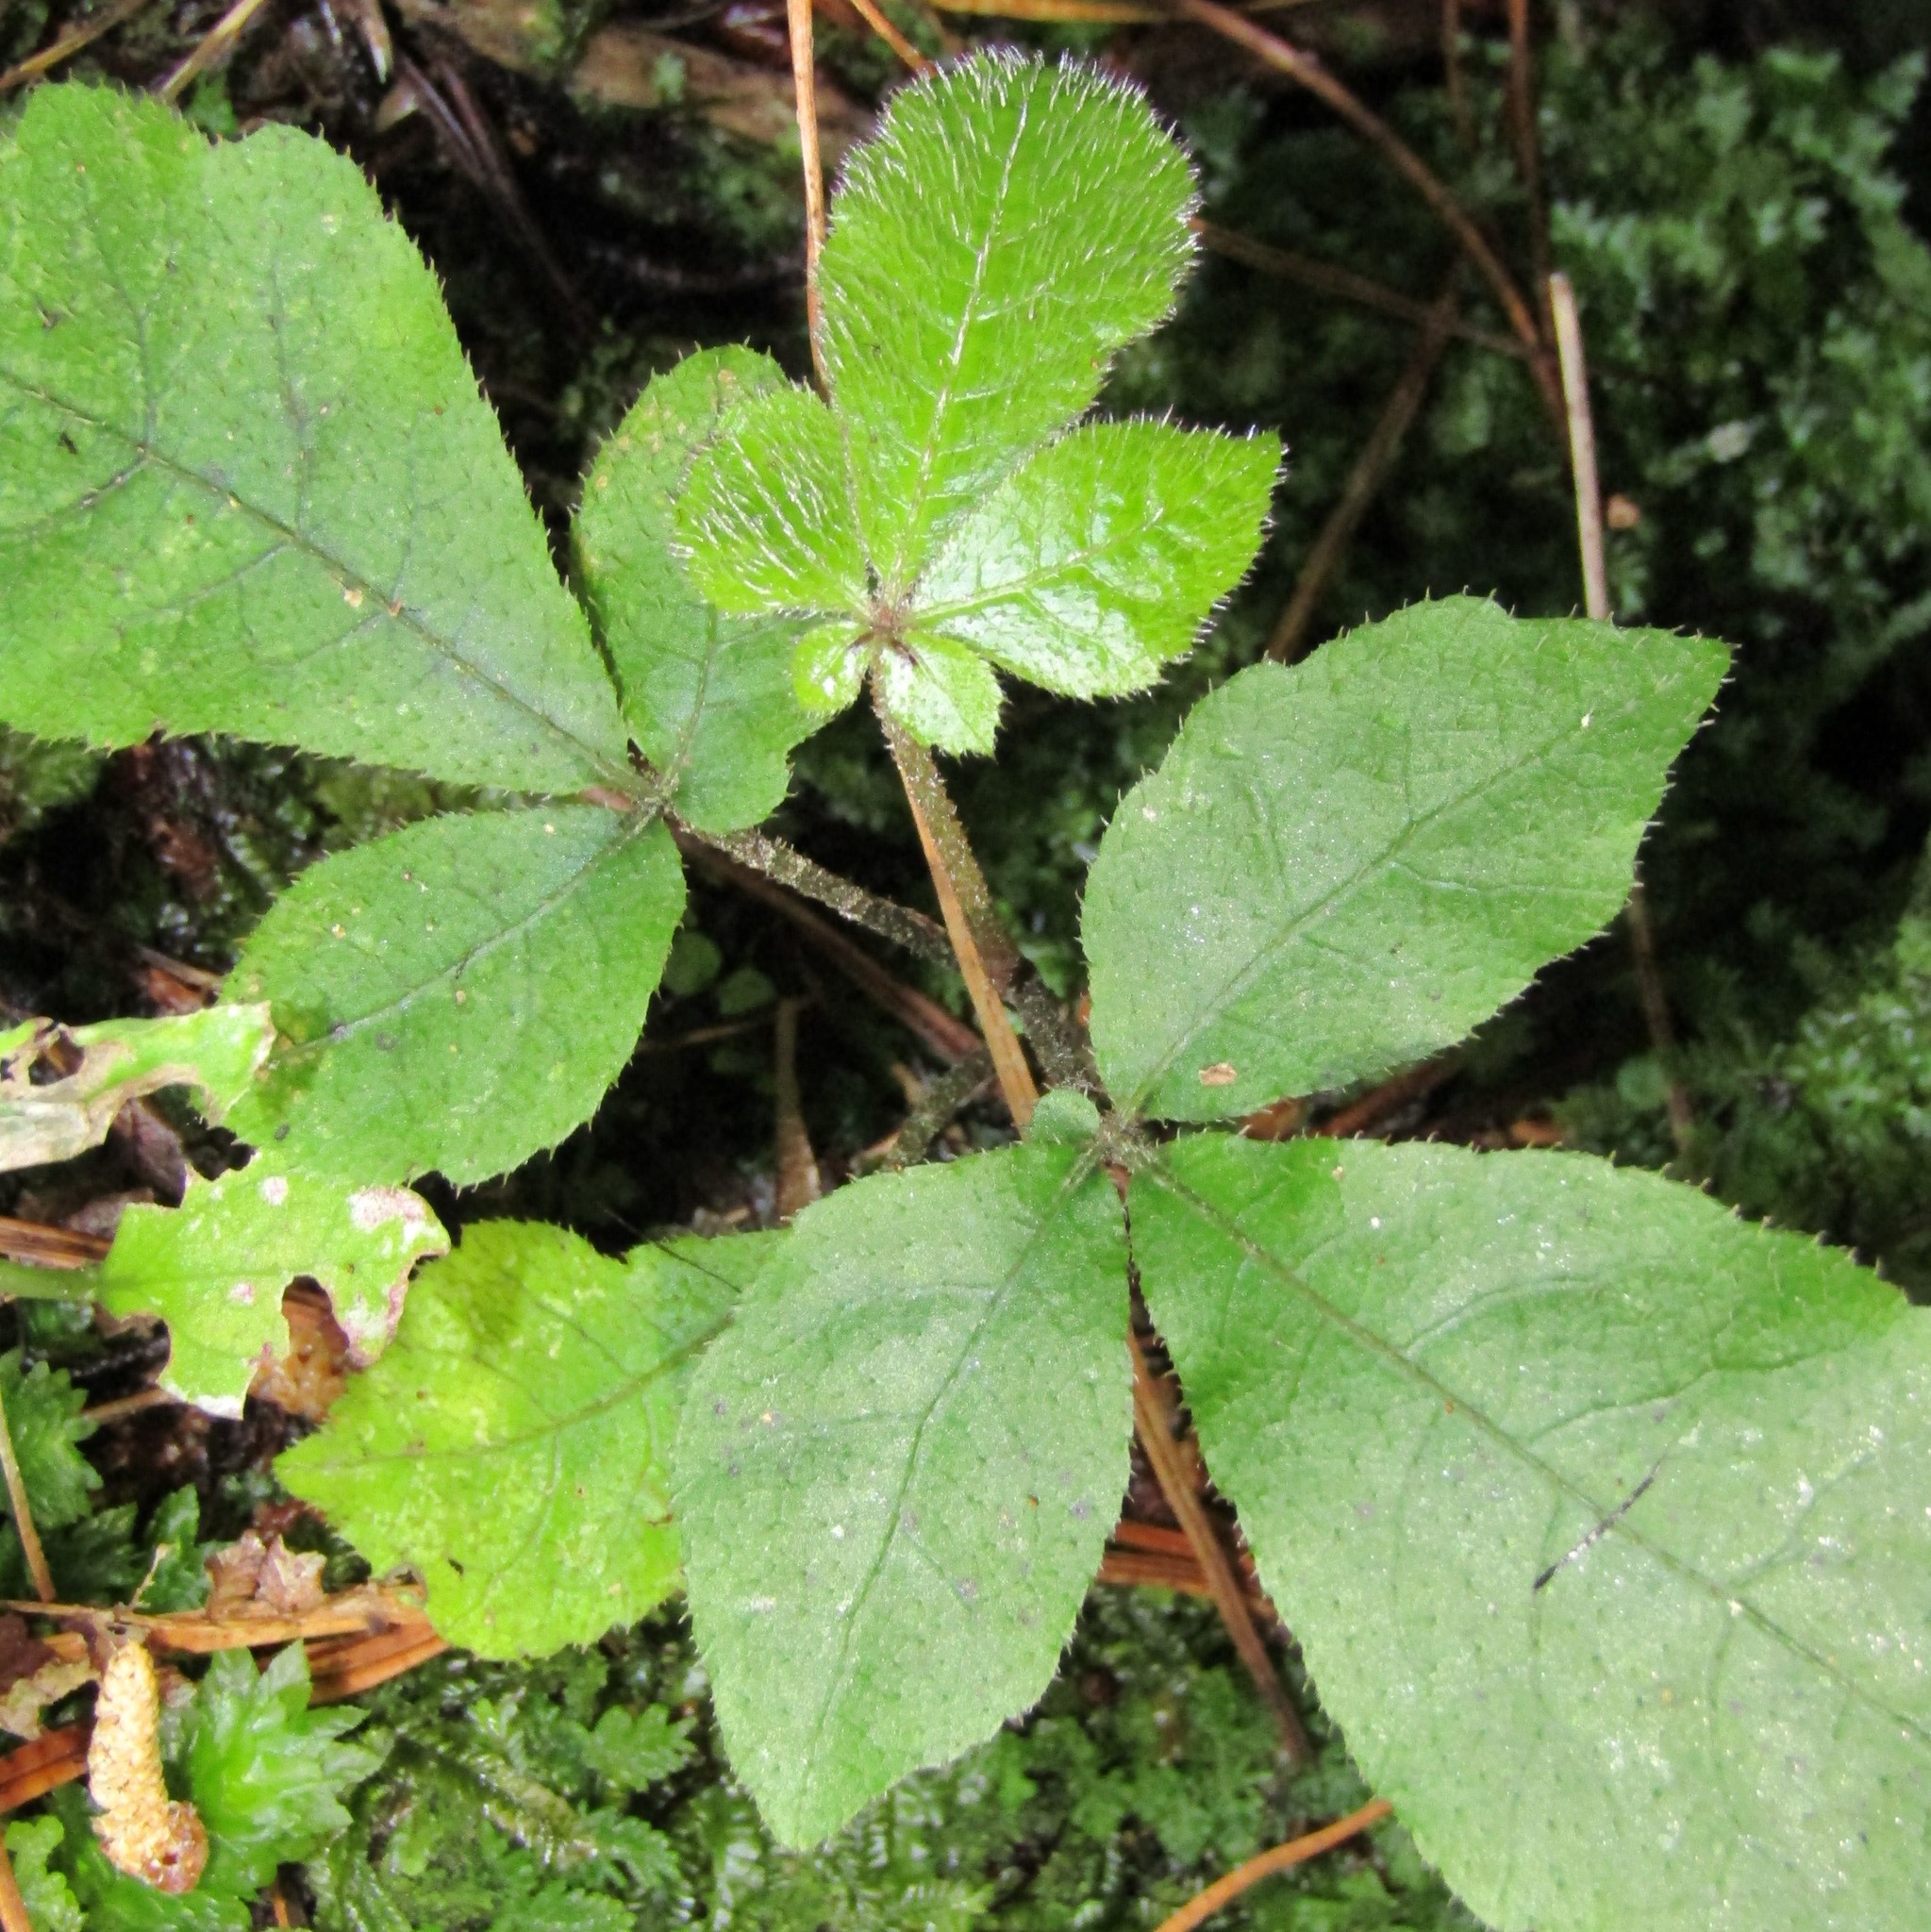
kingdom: Plantae
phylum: Tracheophyta
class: Magnoliopsida
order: Apiales
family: Araliaceae
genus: Schefflera
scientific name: Schefflera digitata
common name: Pate
